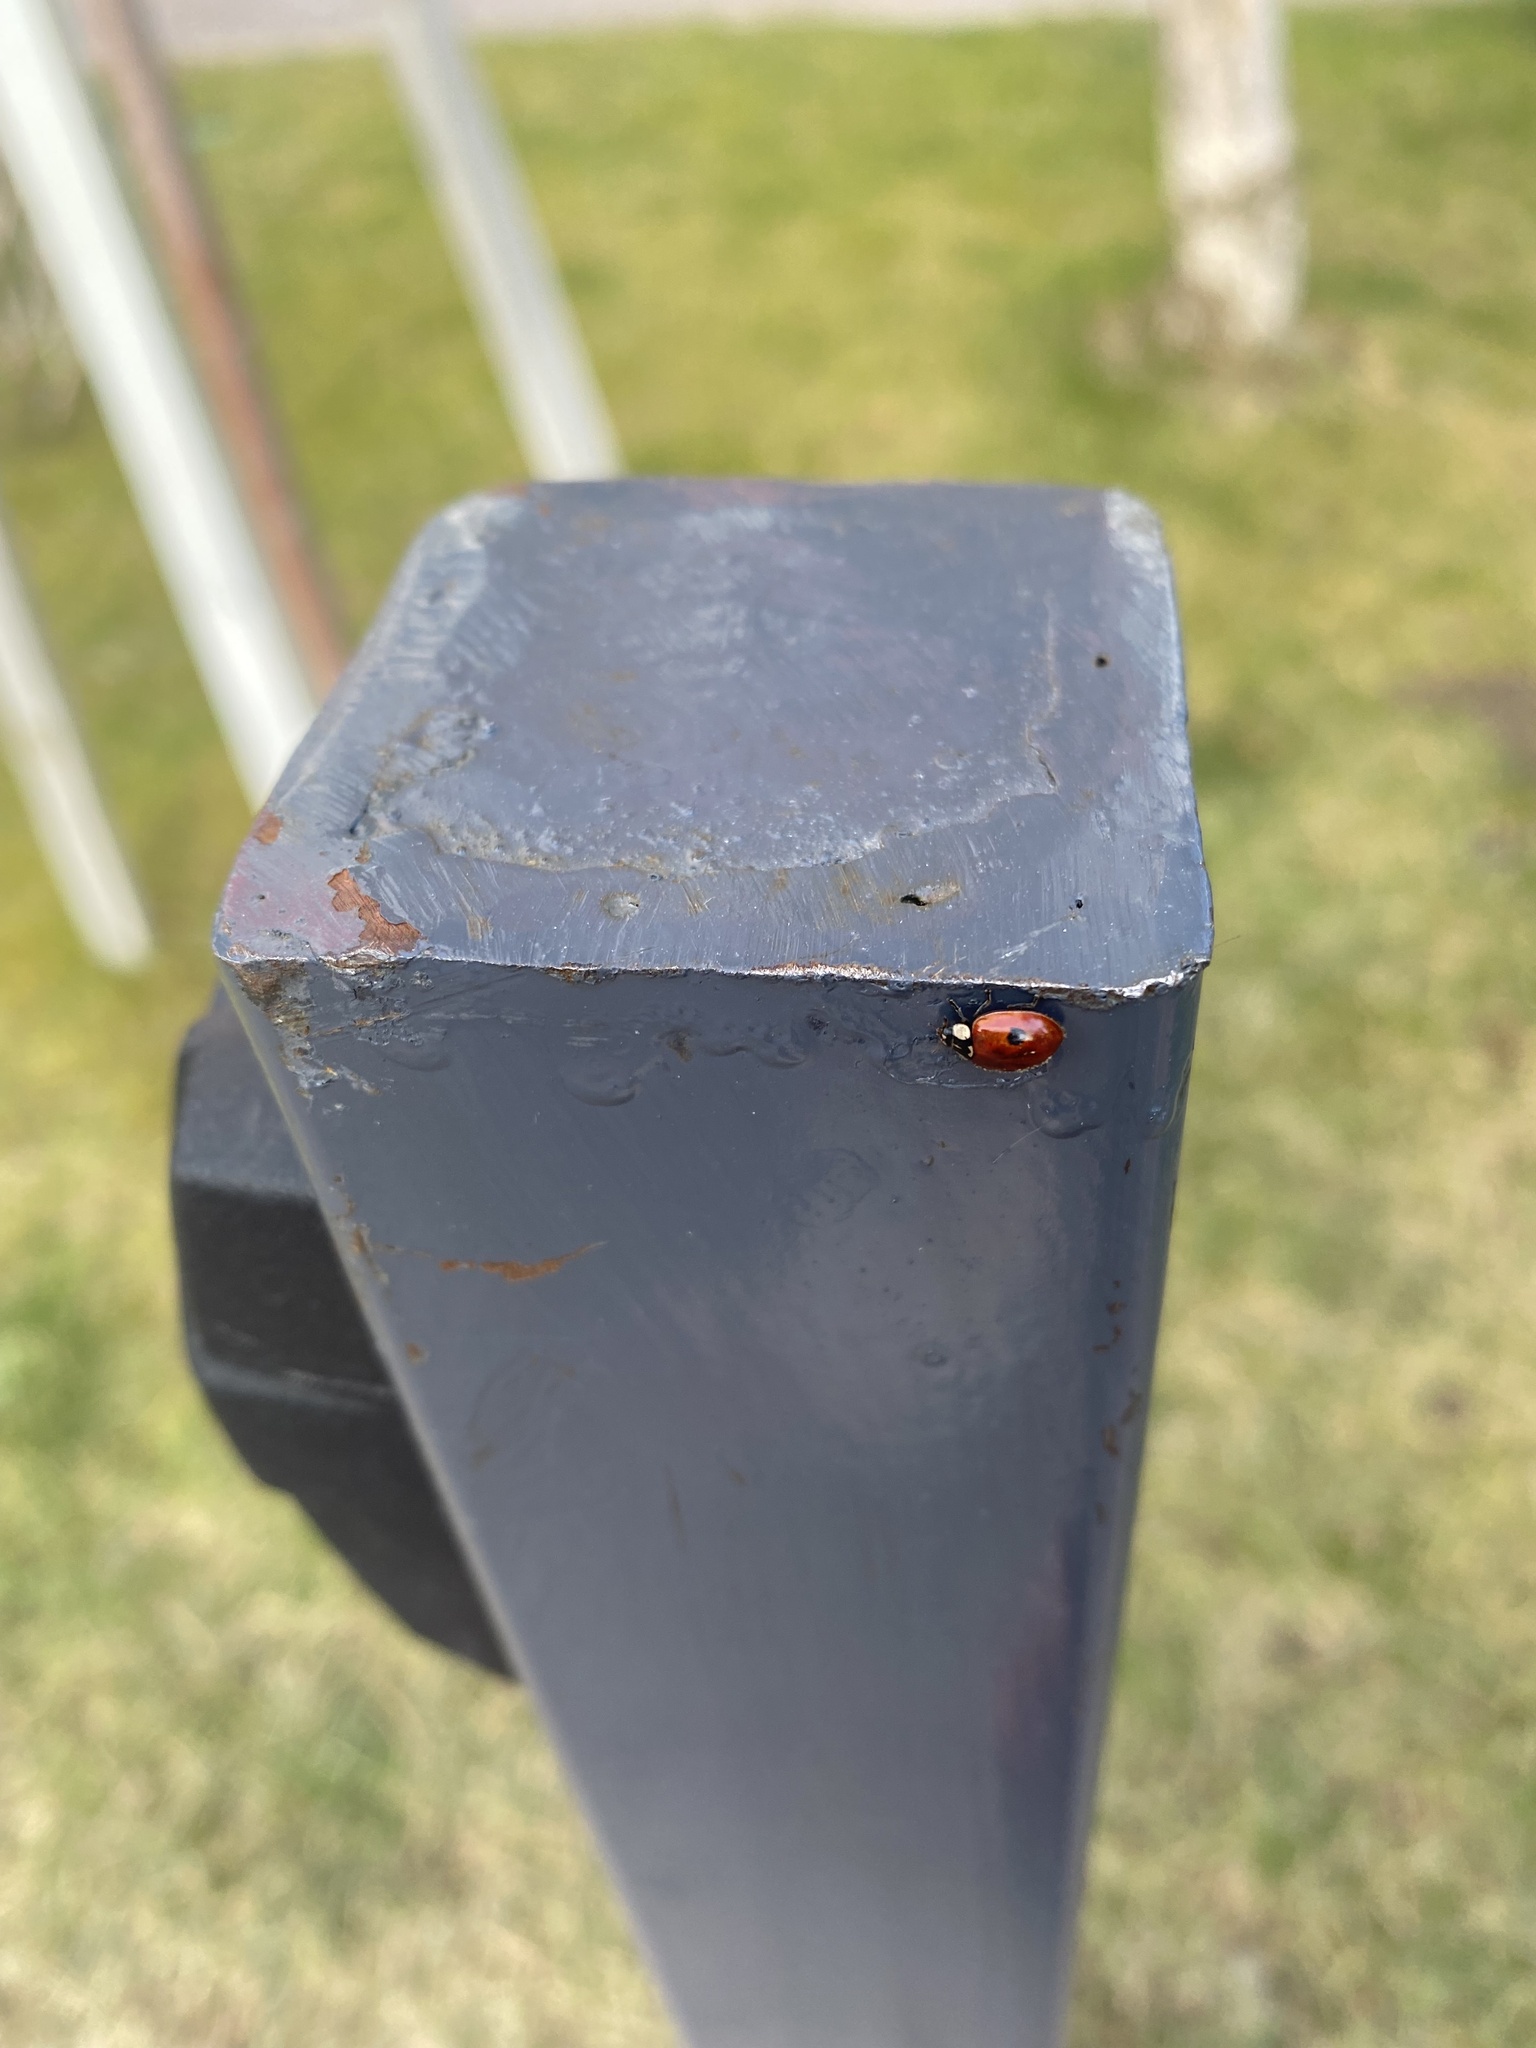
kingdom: Animalia
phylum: Arthropoda
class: Insecta
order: Coleoptera
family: Coccinellidae
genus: Adalia
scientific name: Adalia bipunctata
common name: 2-spot ladybird
